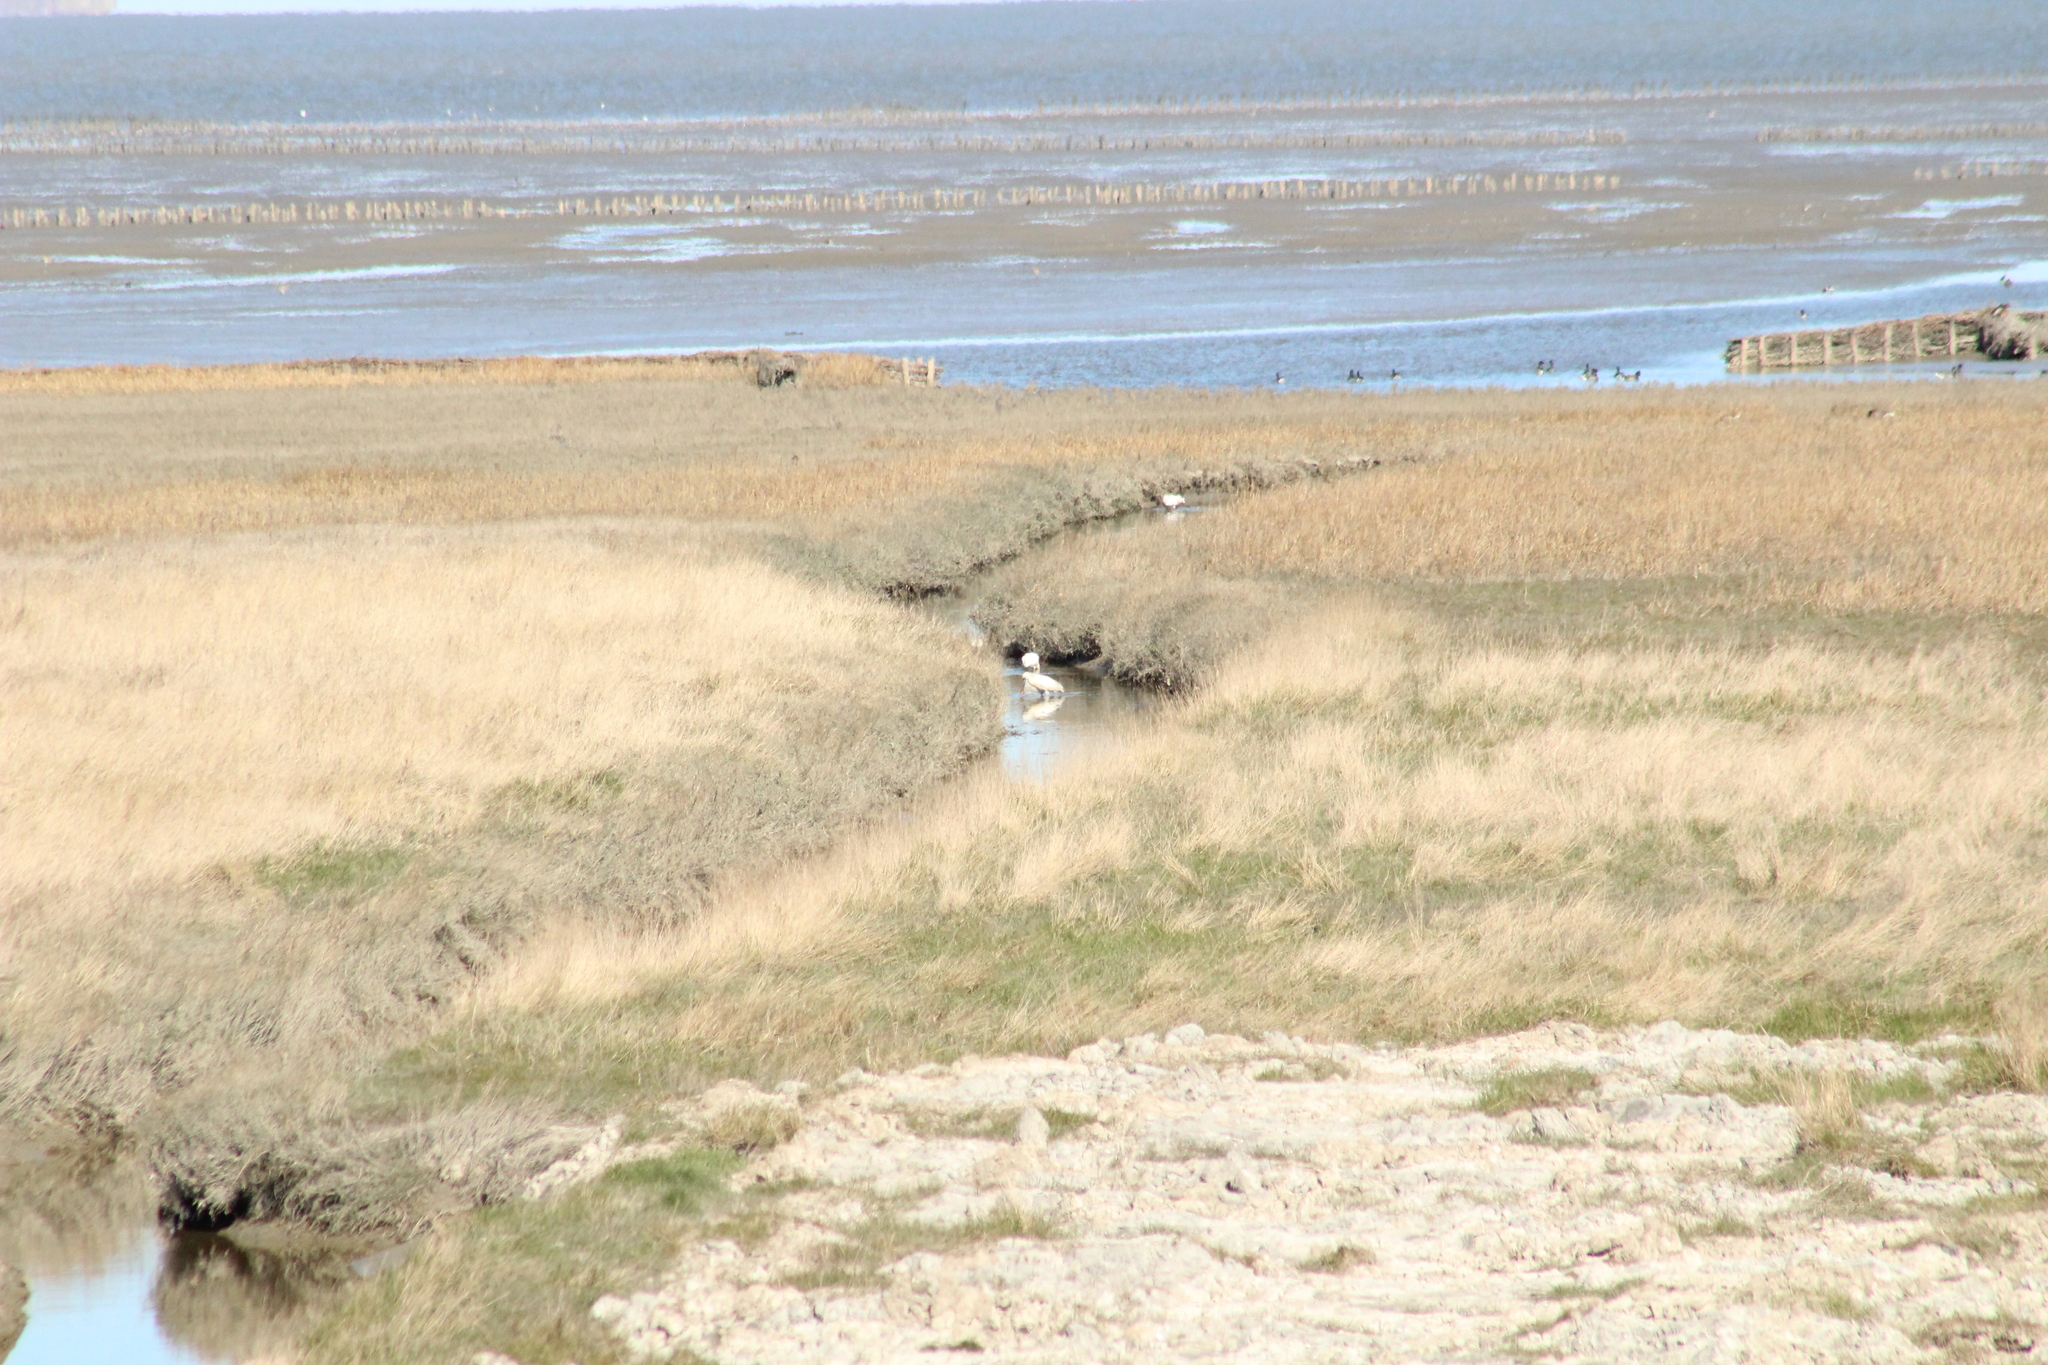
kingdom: Animalia
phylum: Chordata
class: Aves
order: Pelecaniformes
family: Threskiornithidae
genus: Platalea
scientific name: Platalea leucorodia
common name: Eurasian spoonbill
